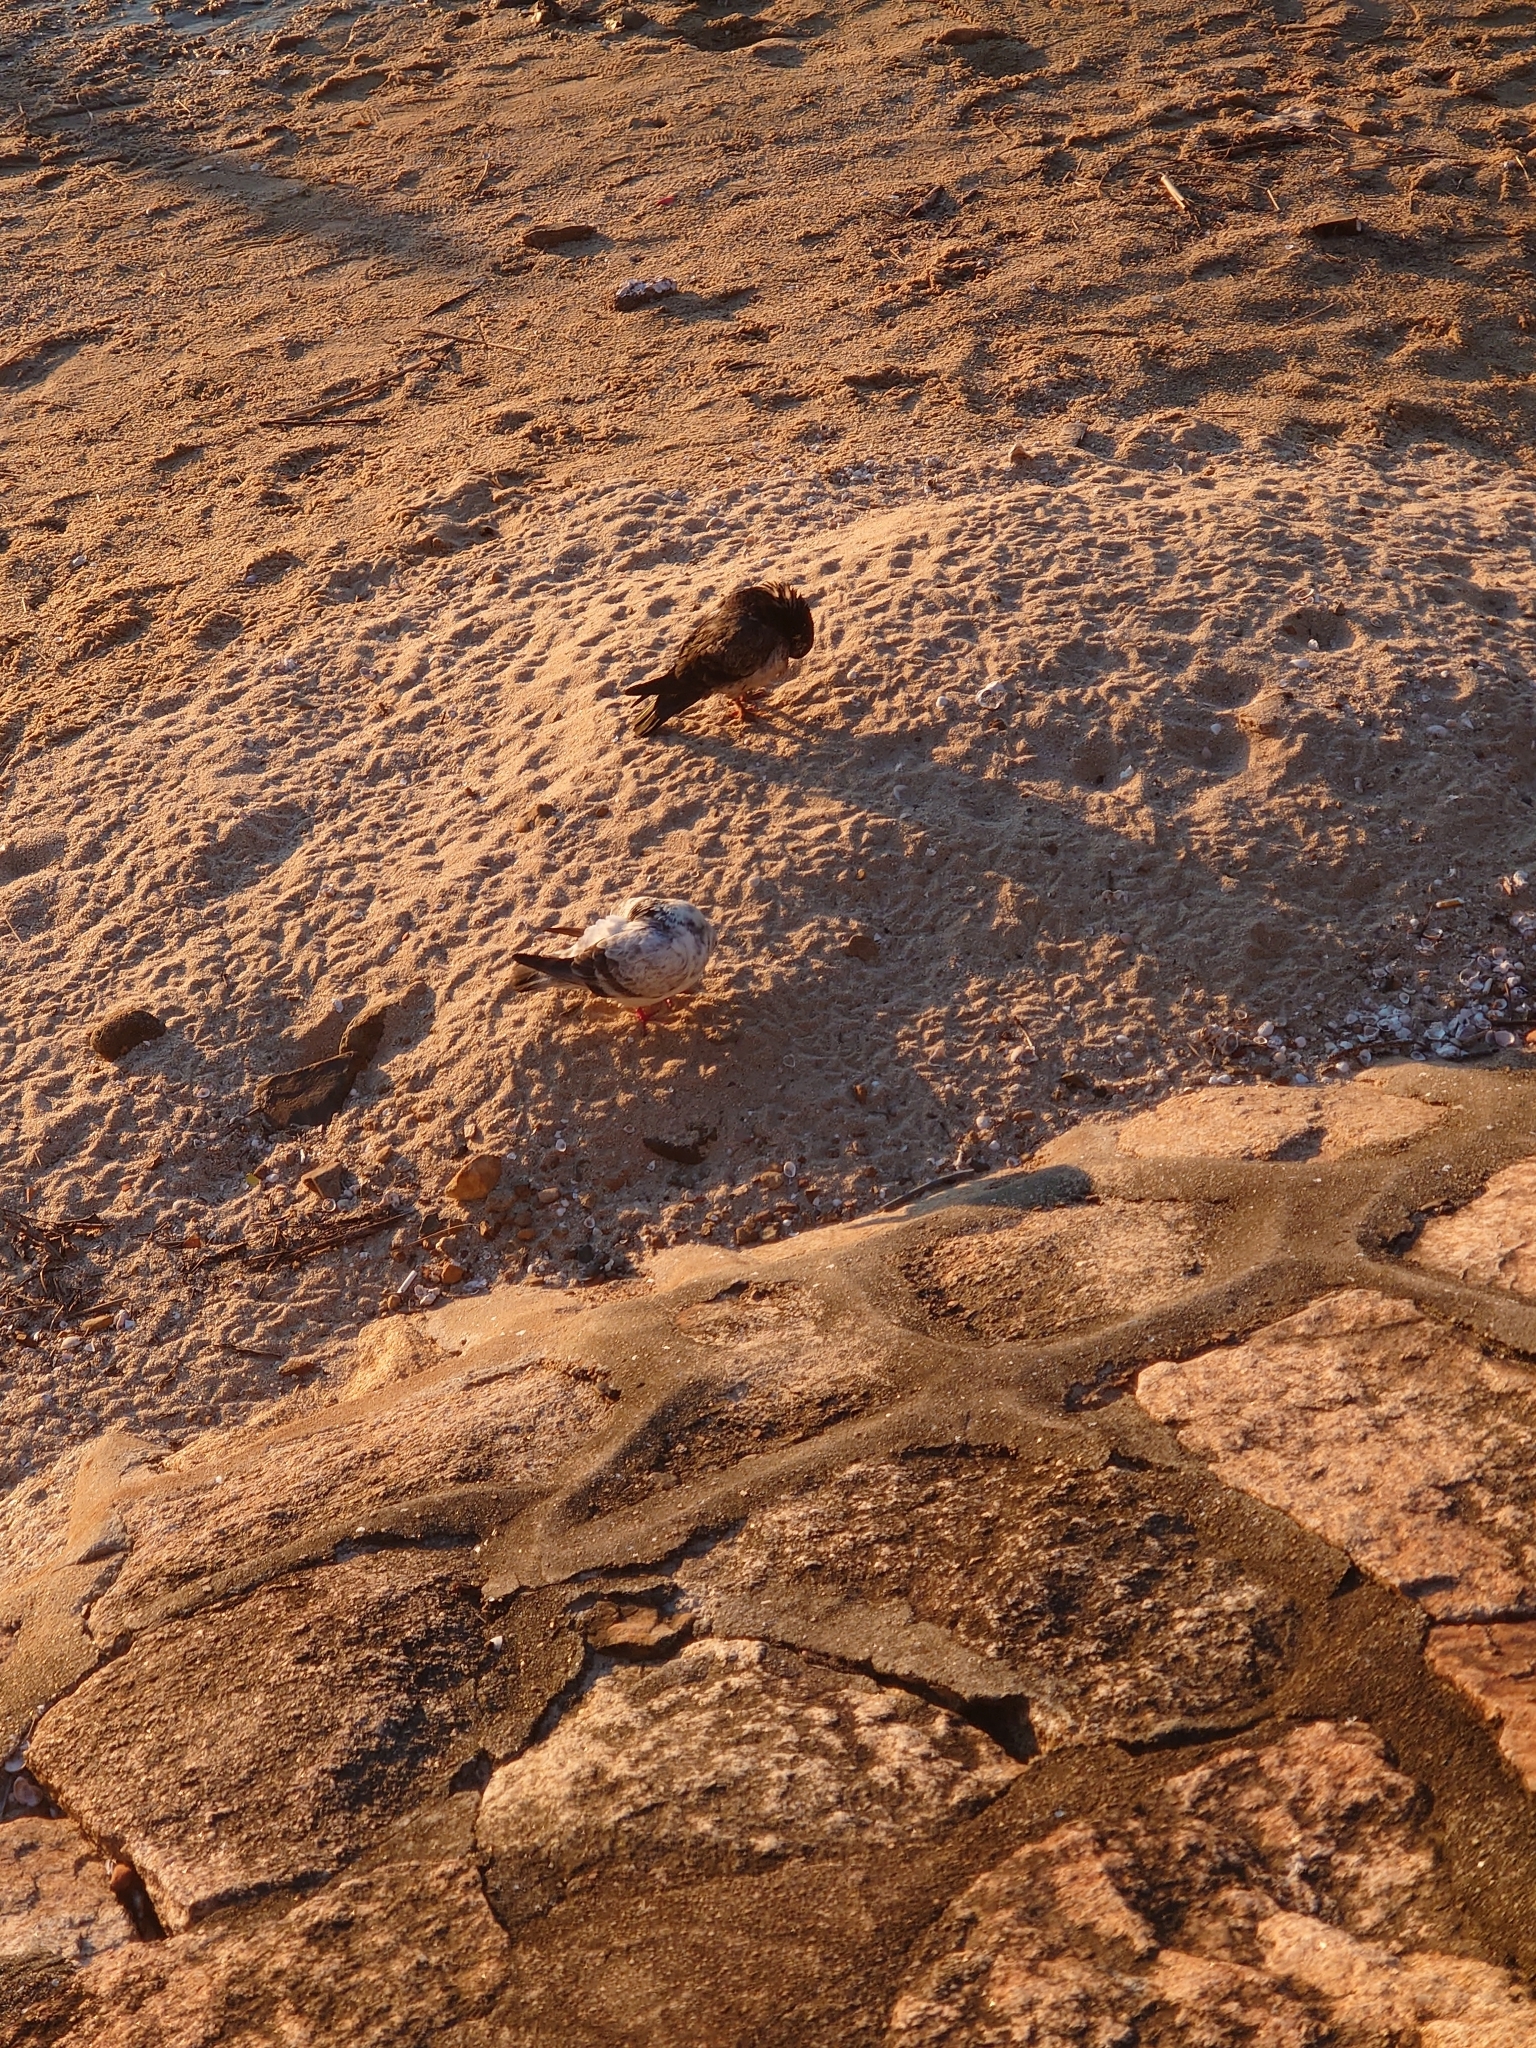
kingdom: Animalia
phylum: Chordata
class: Aves
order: Columbiformes
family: Columbidae
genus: Columba
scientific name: Columba livia
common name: Rock pigeon
